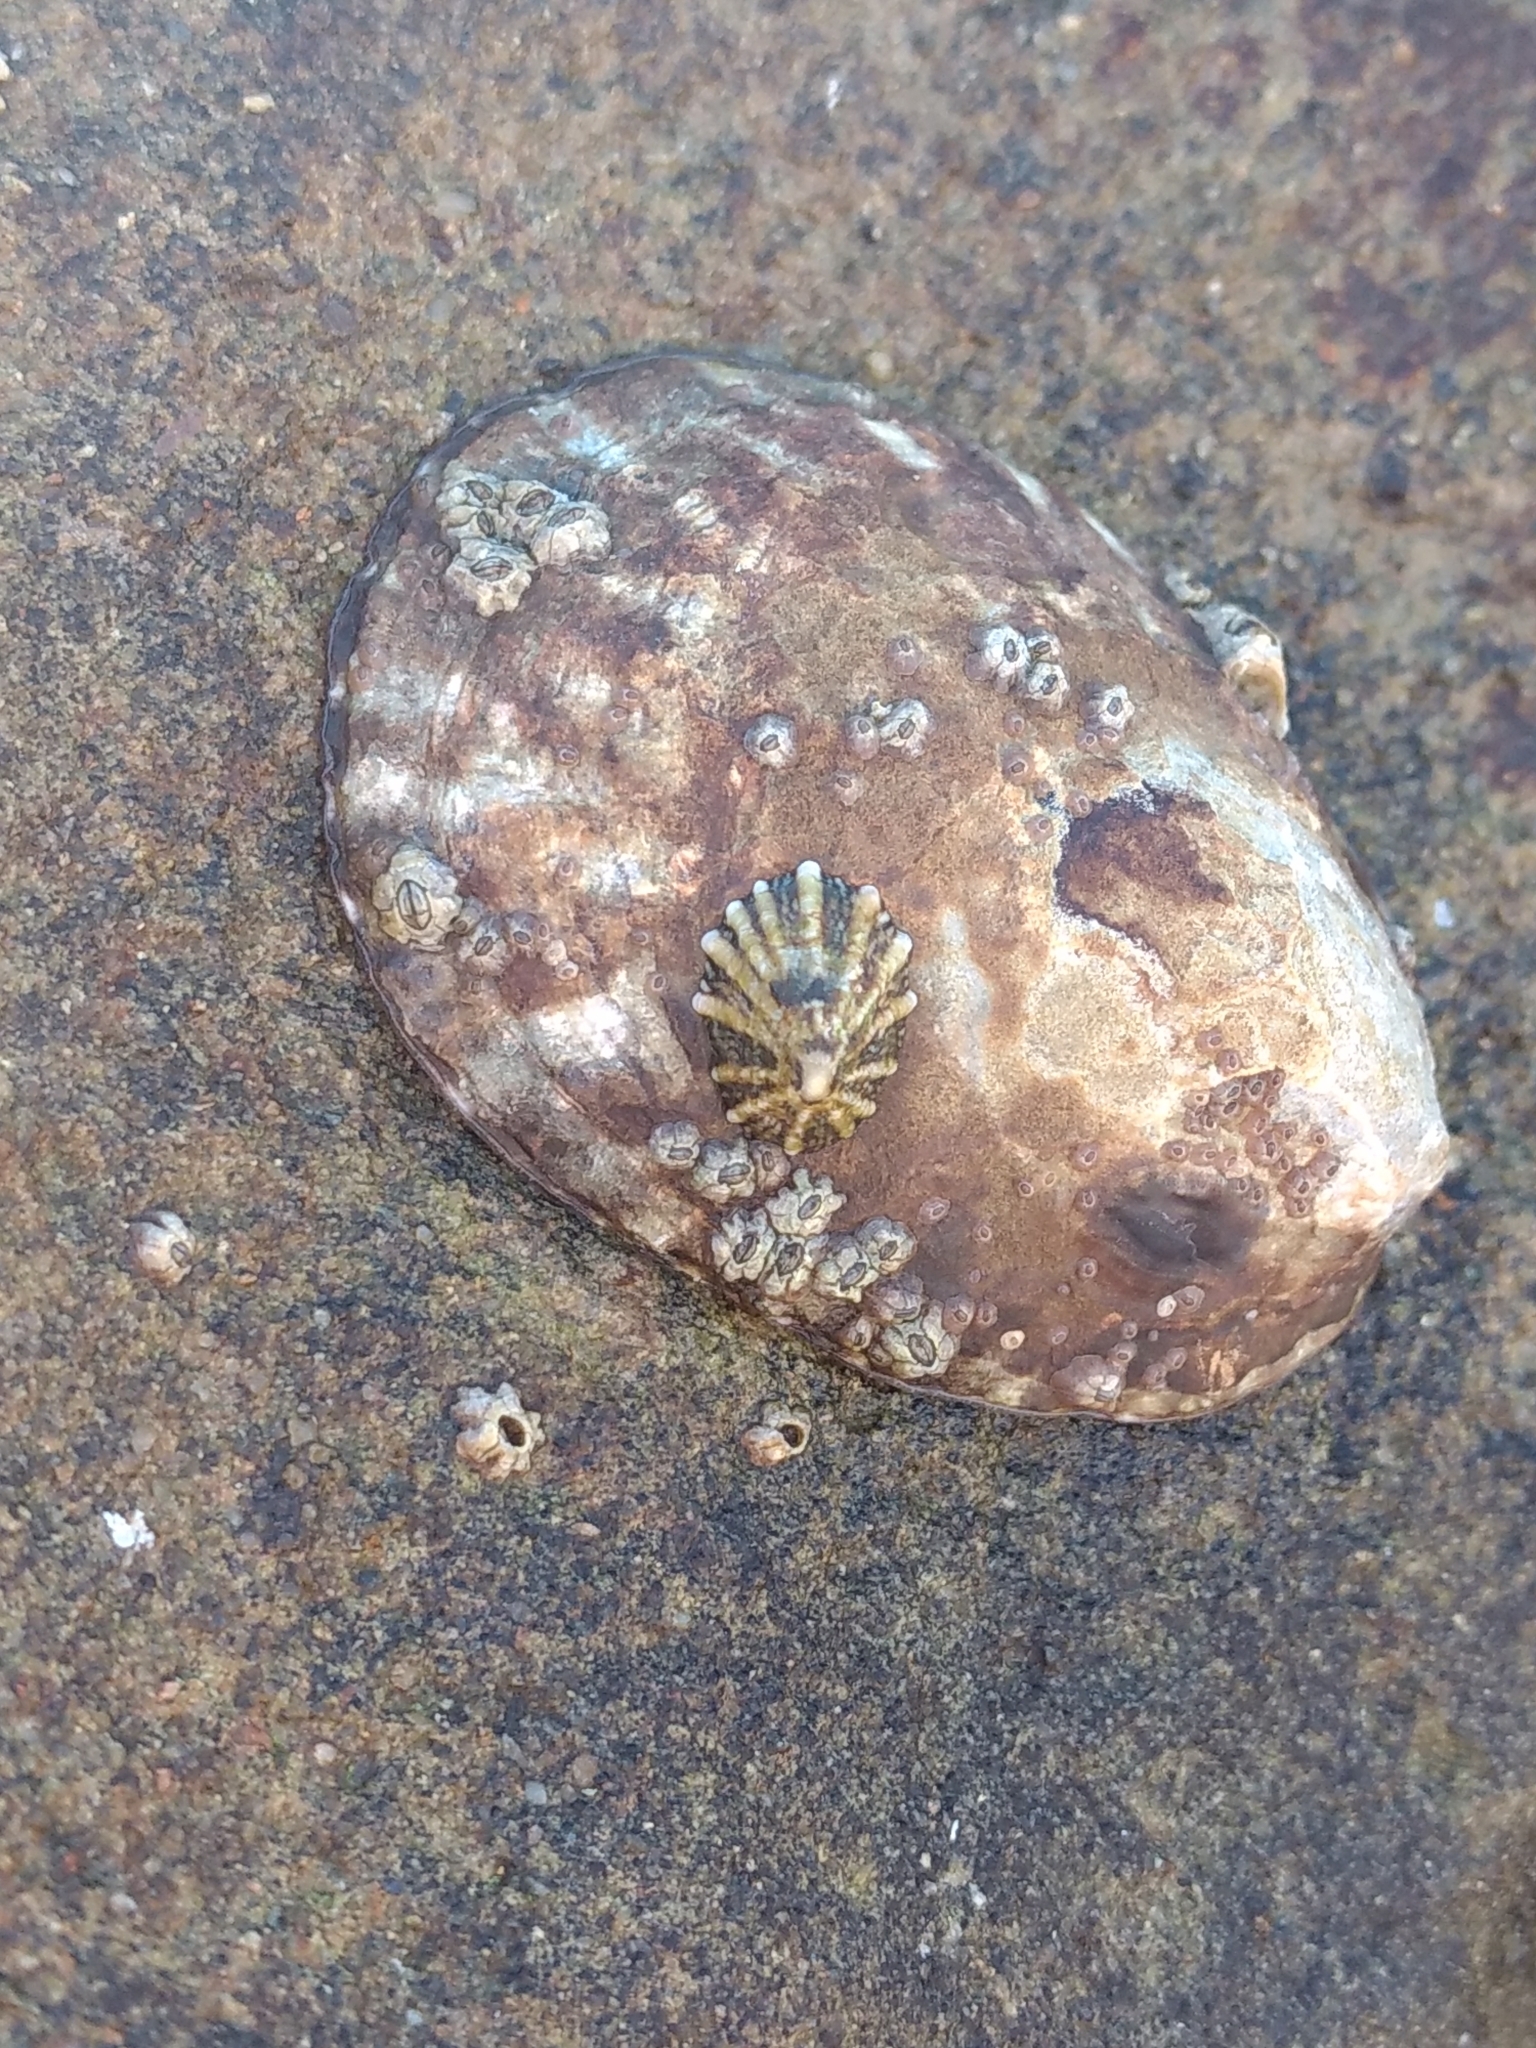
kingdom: Animalia
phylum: Mollusca
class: Gastropoda
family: Lottiidae
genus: Lottia
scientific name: Lottia gigantea
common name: Owl limpet
